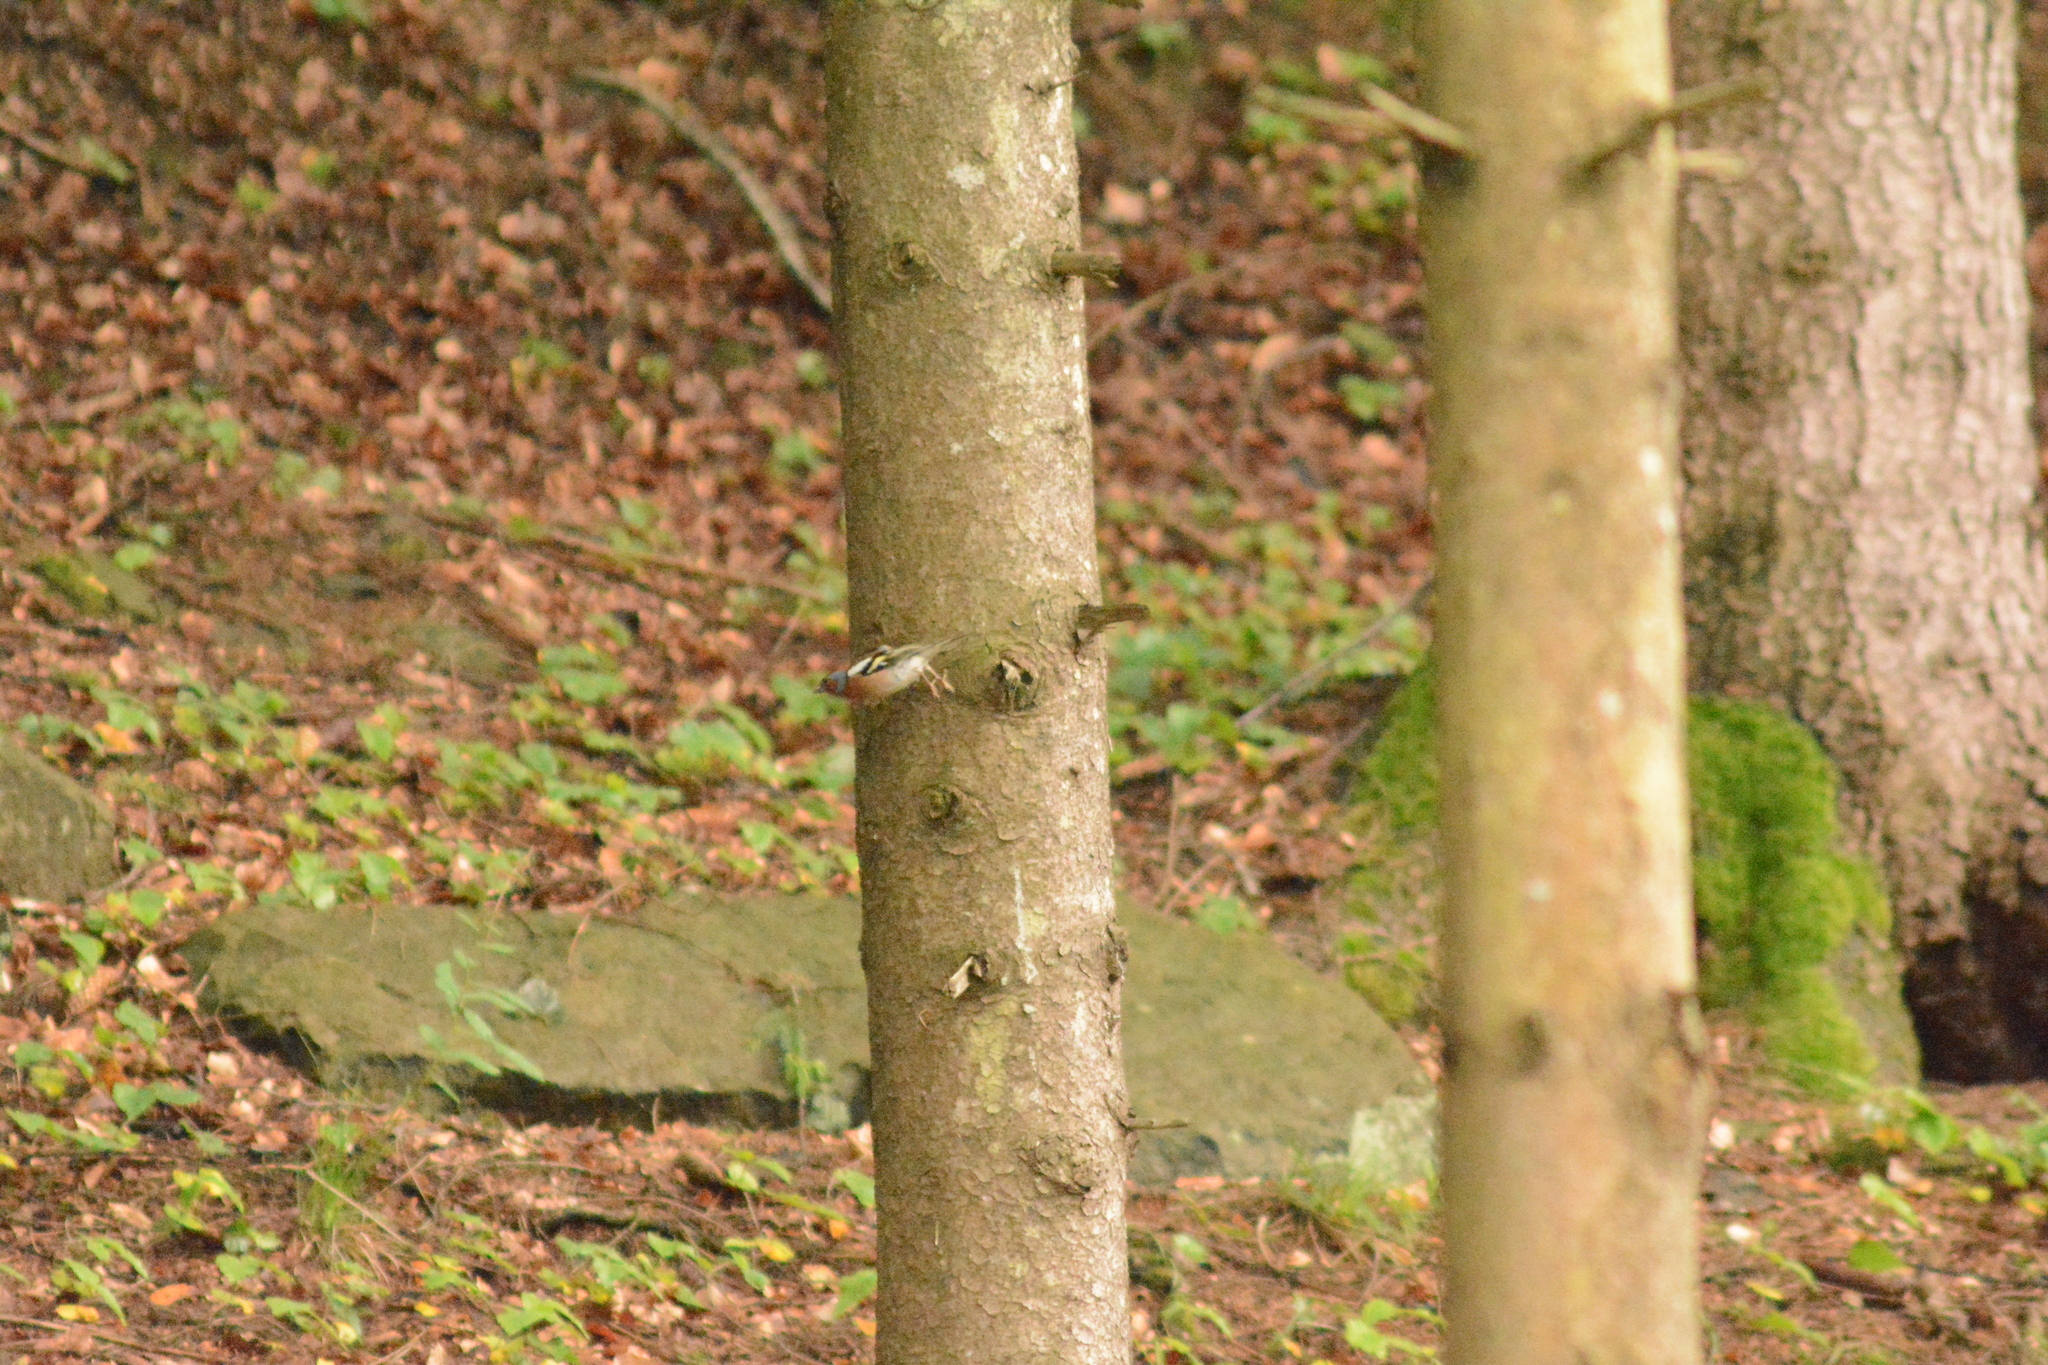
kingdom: Animalia
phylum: Chordata
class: Aves
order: Passeriformes
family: Fringillidae
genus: Fringilla
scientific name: Fringilla coelebs
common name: Common chaffinch
